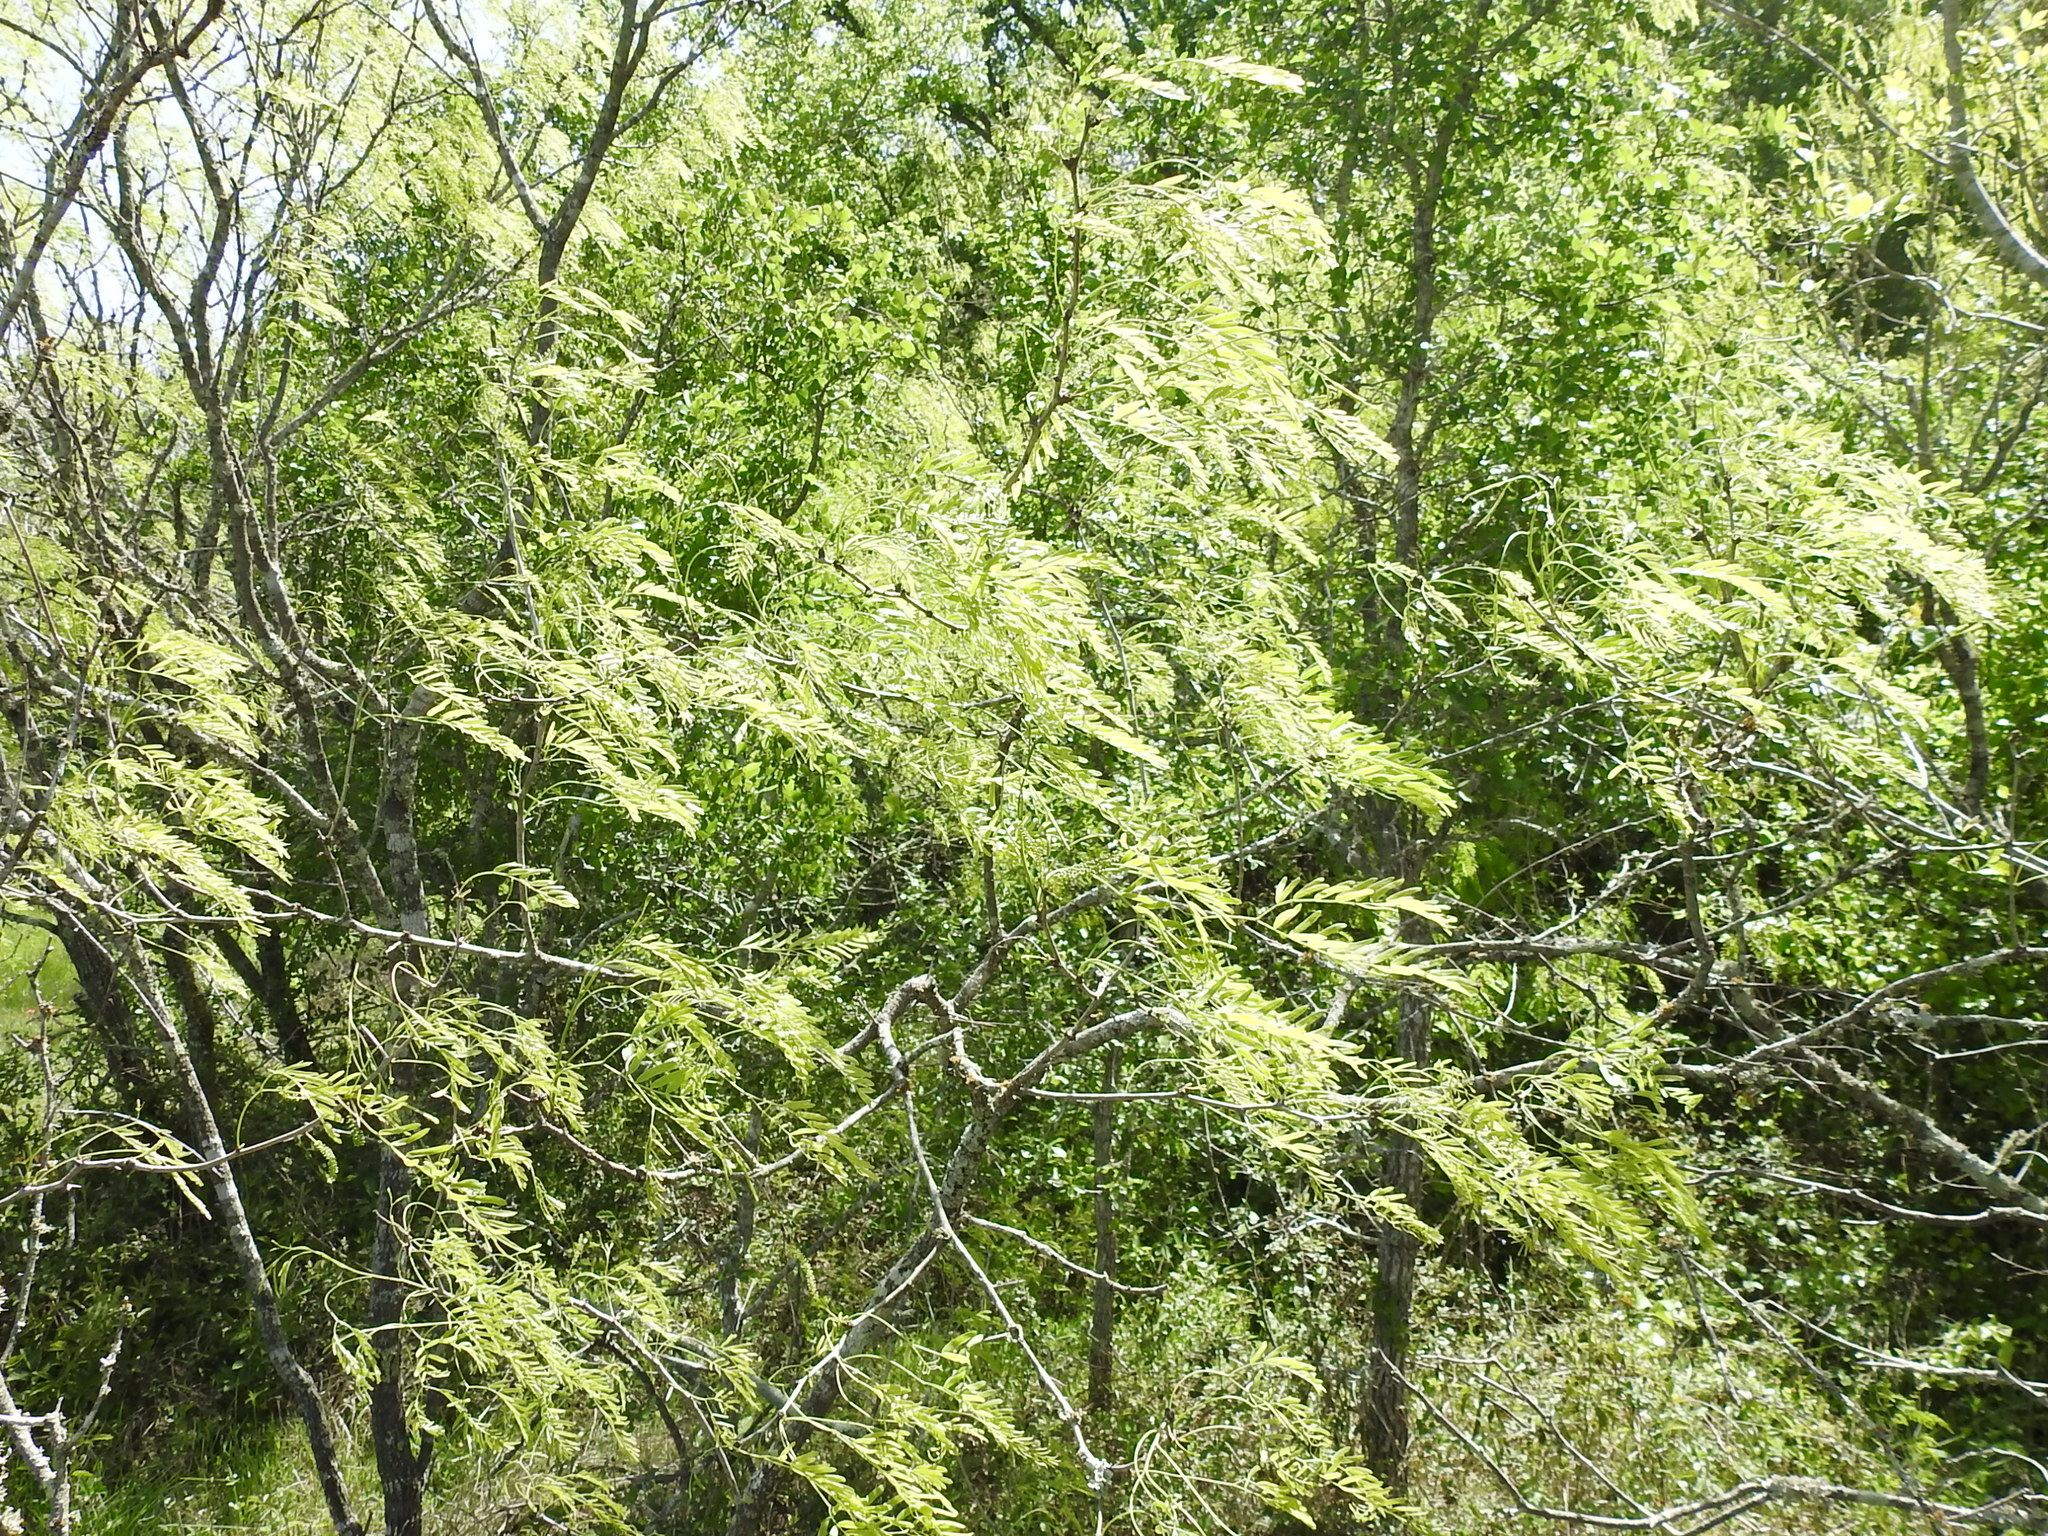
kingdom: Plantae
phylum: Tracheophyta
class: Magnoliopsida
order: Fabales
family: Fabaceae
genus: Prosopis
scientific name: Prosopis glandulosa
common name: Honey mesquite
